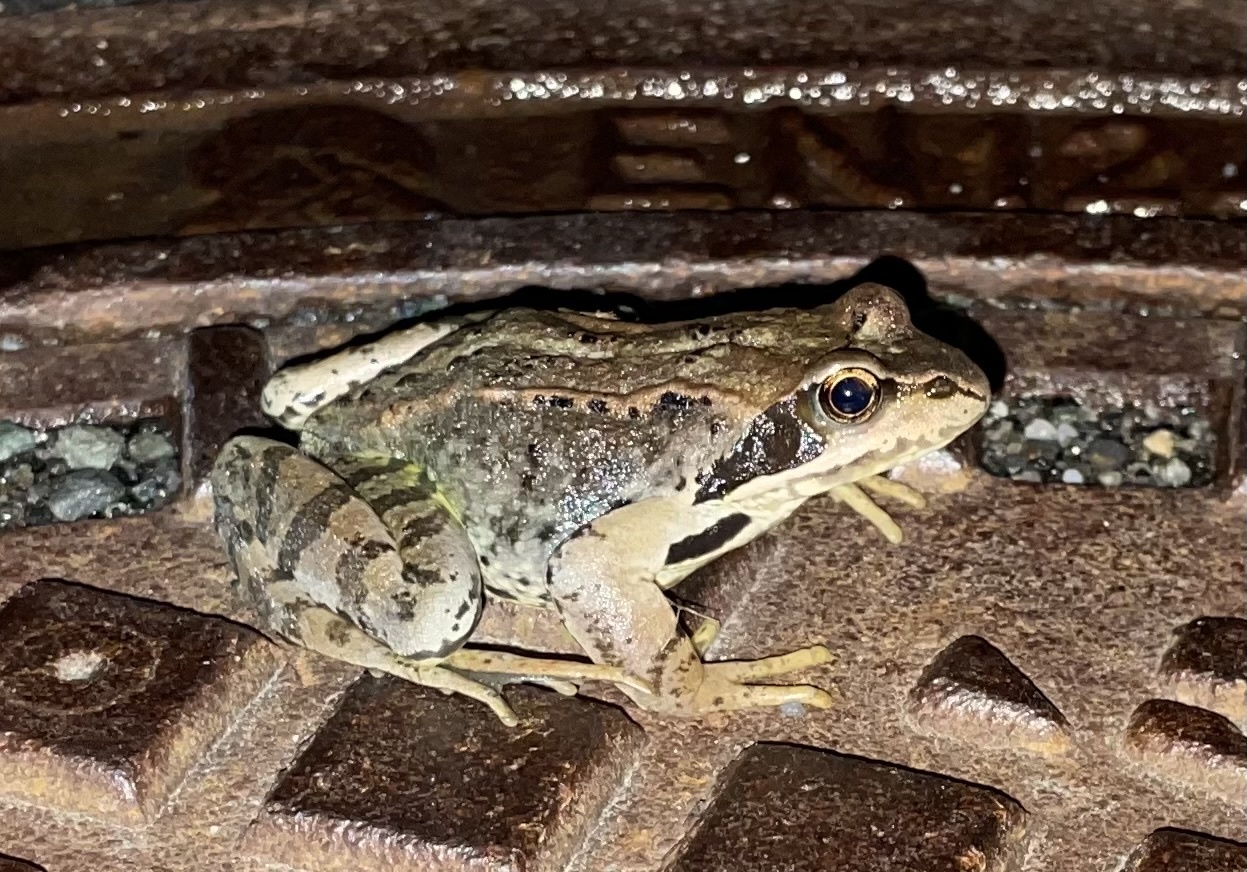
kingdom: Animalia
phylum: Chordata
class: Amphibia
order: Anura
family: Ranidae
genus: Rana
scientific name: Rana temporaria
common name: Common frog
